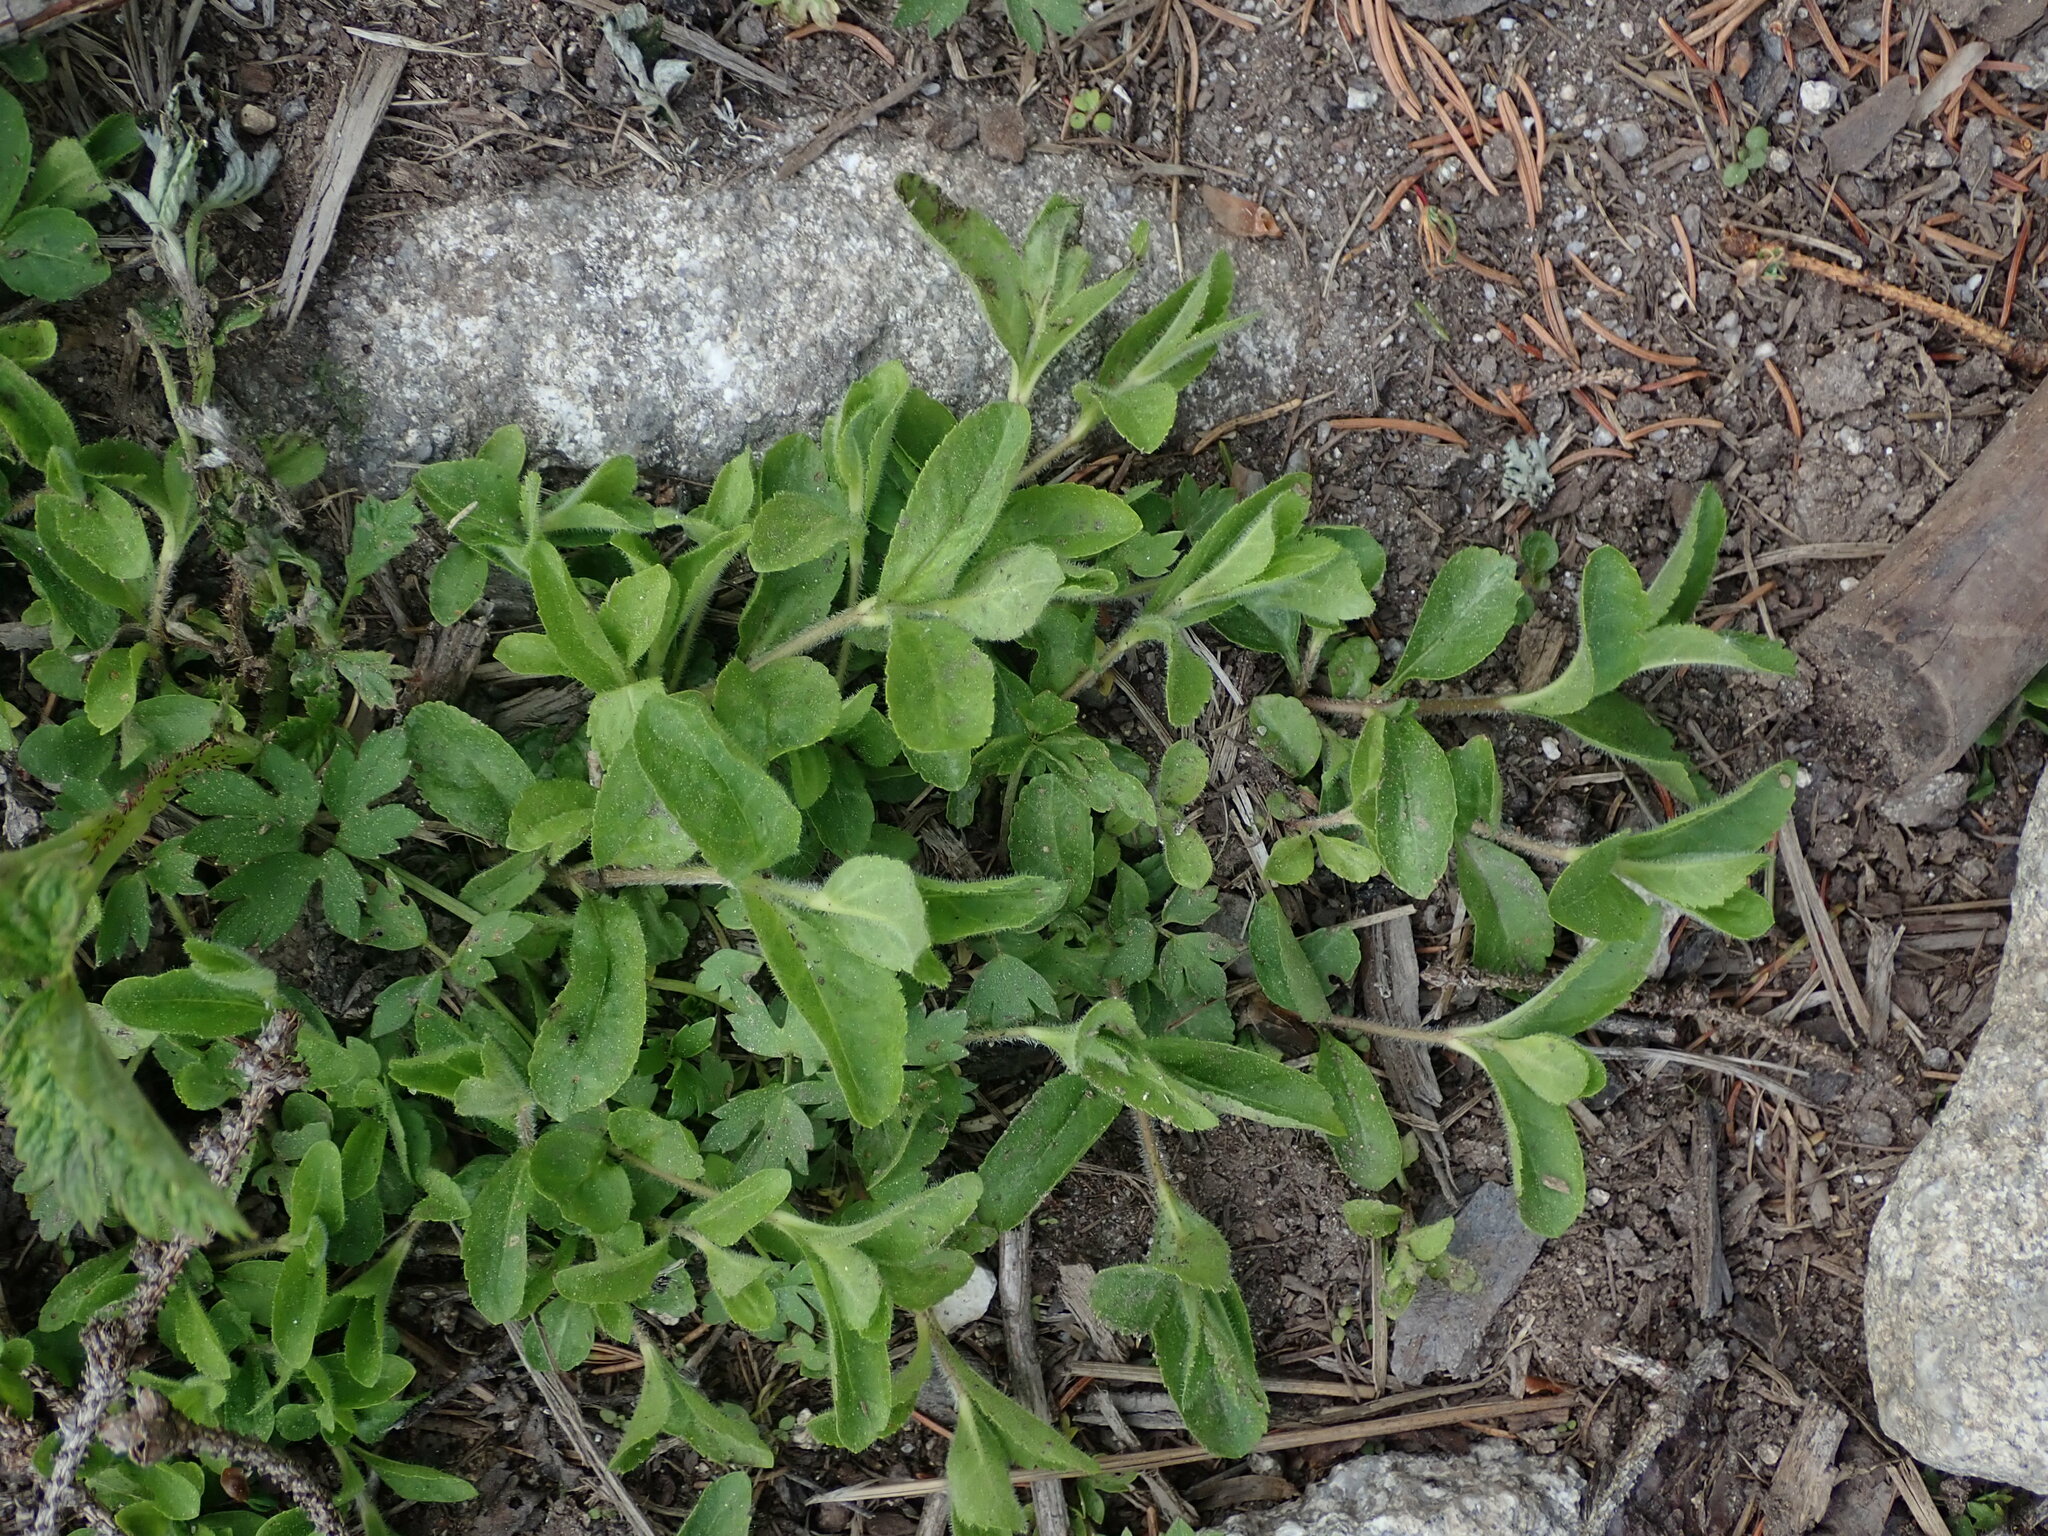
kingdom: Plantae
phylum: Tracheophyta
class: Magnoliopsida
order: Lamiales
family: Plantaginaceae
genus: Veronica
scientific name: Veronica officinalis
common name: Common speedwell
